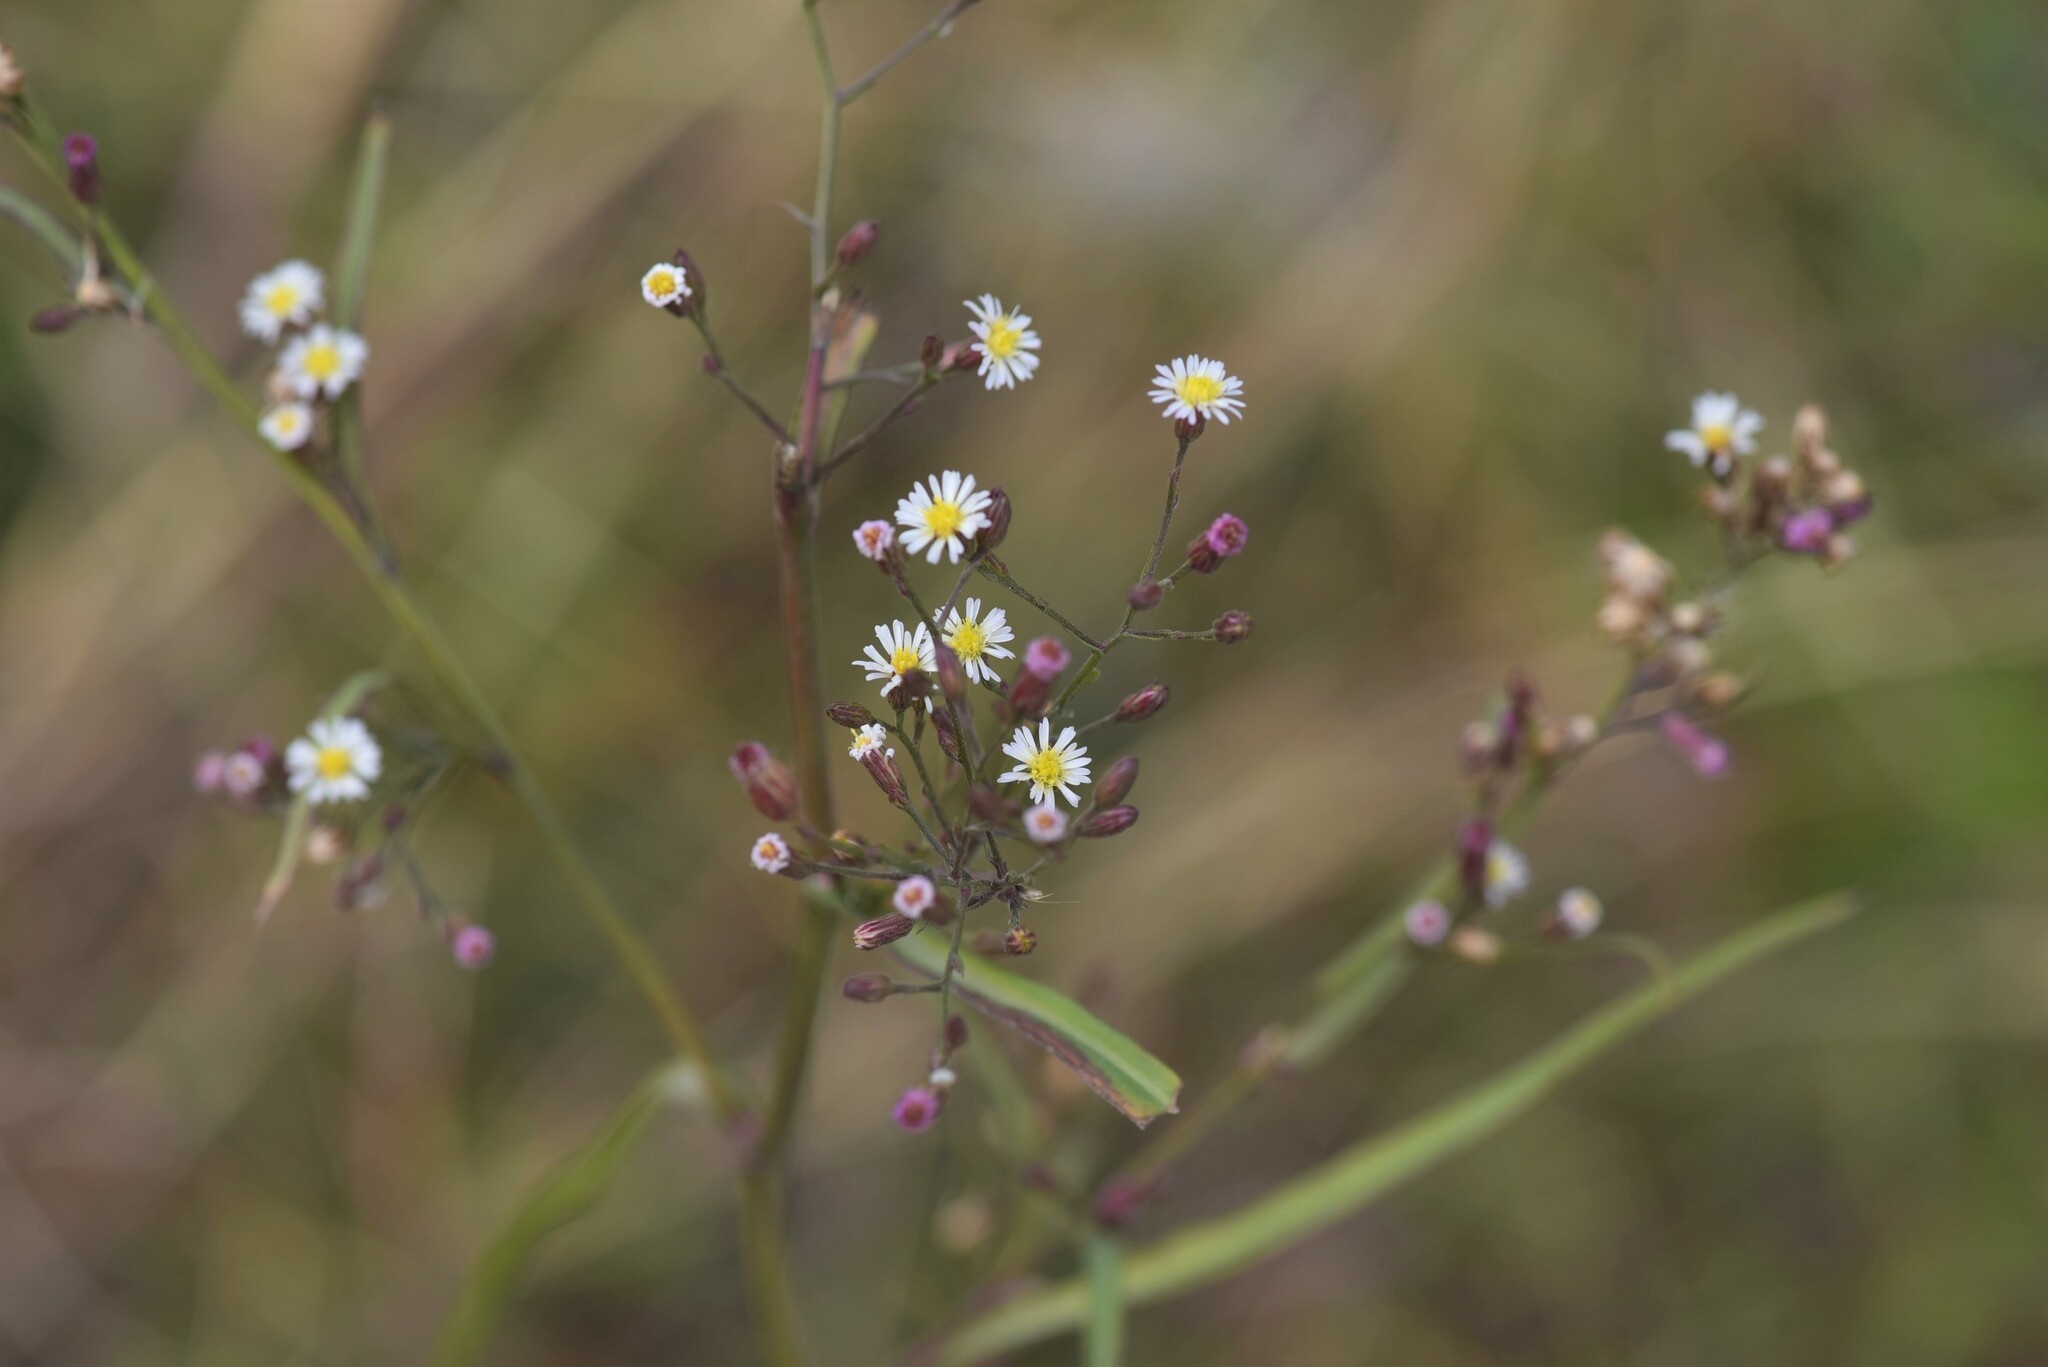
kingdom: Plantae
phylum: Tracheophyta
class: Magnoliopsida
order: Asterales
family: Asteraceae
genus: Symphyotrichum
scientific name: Symphyotrichum subulatum
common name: Annual saltmarsh aster
